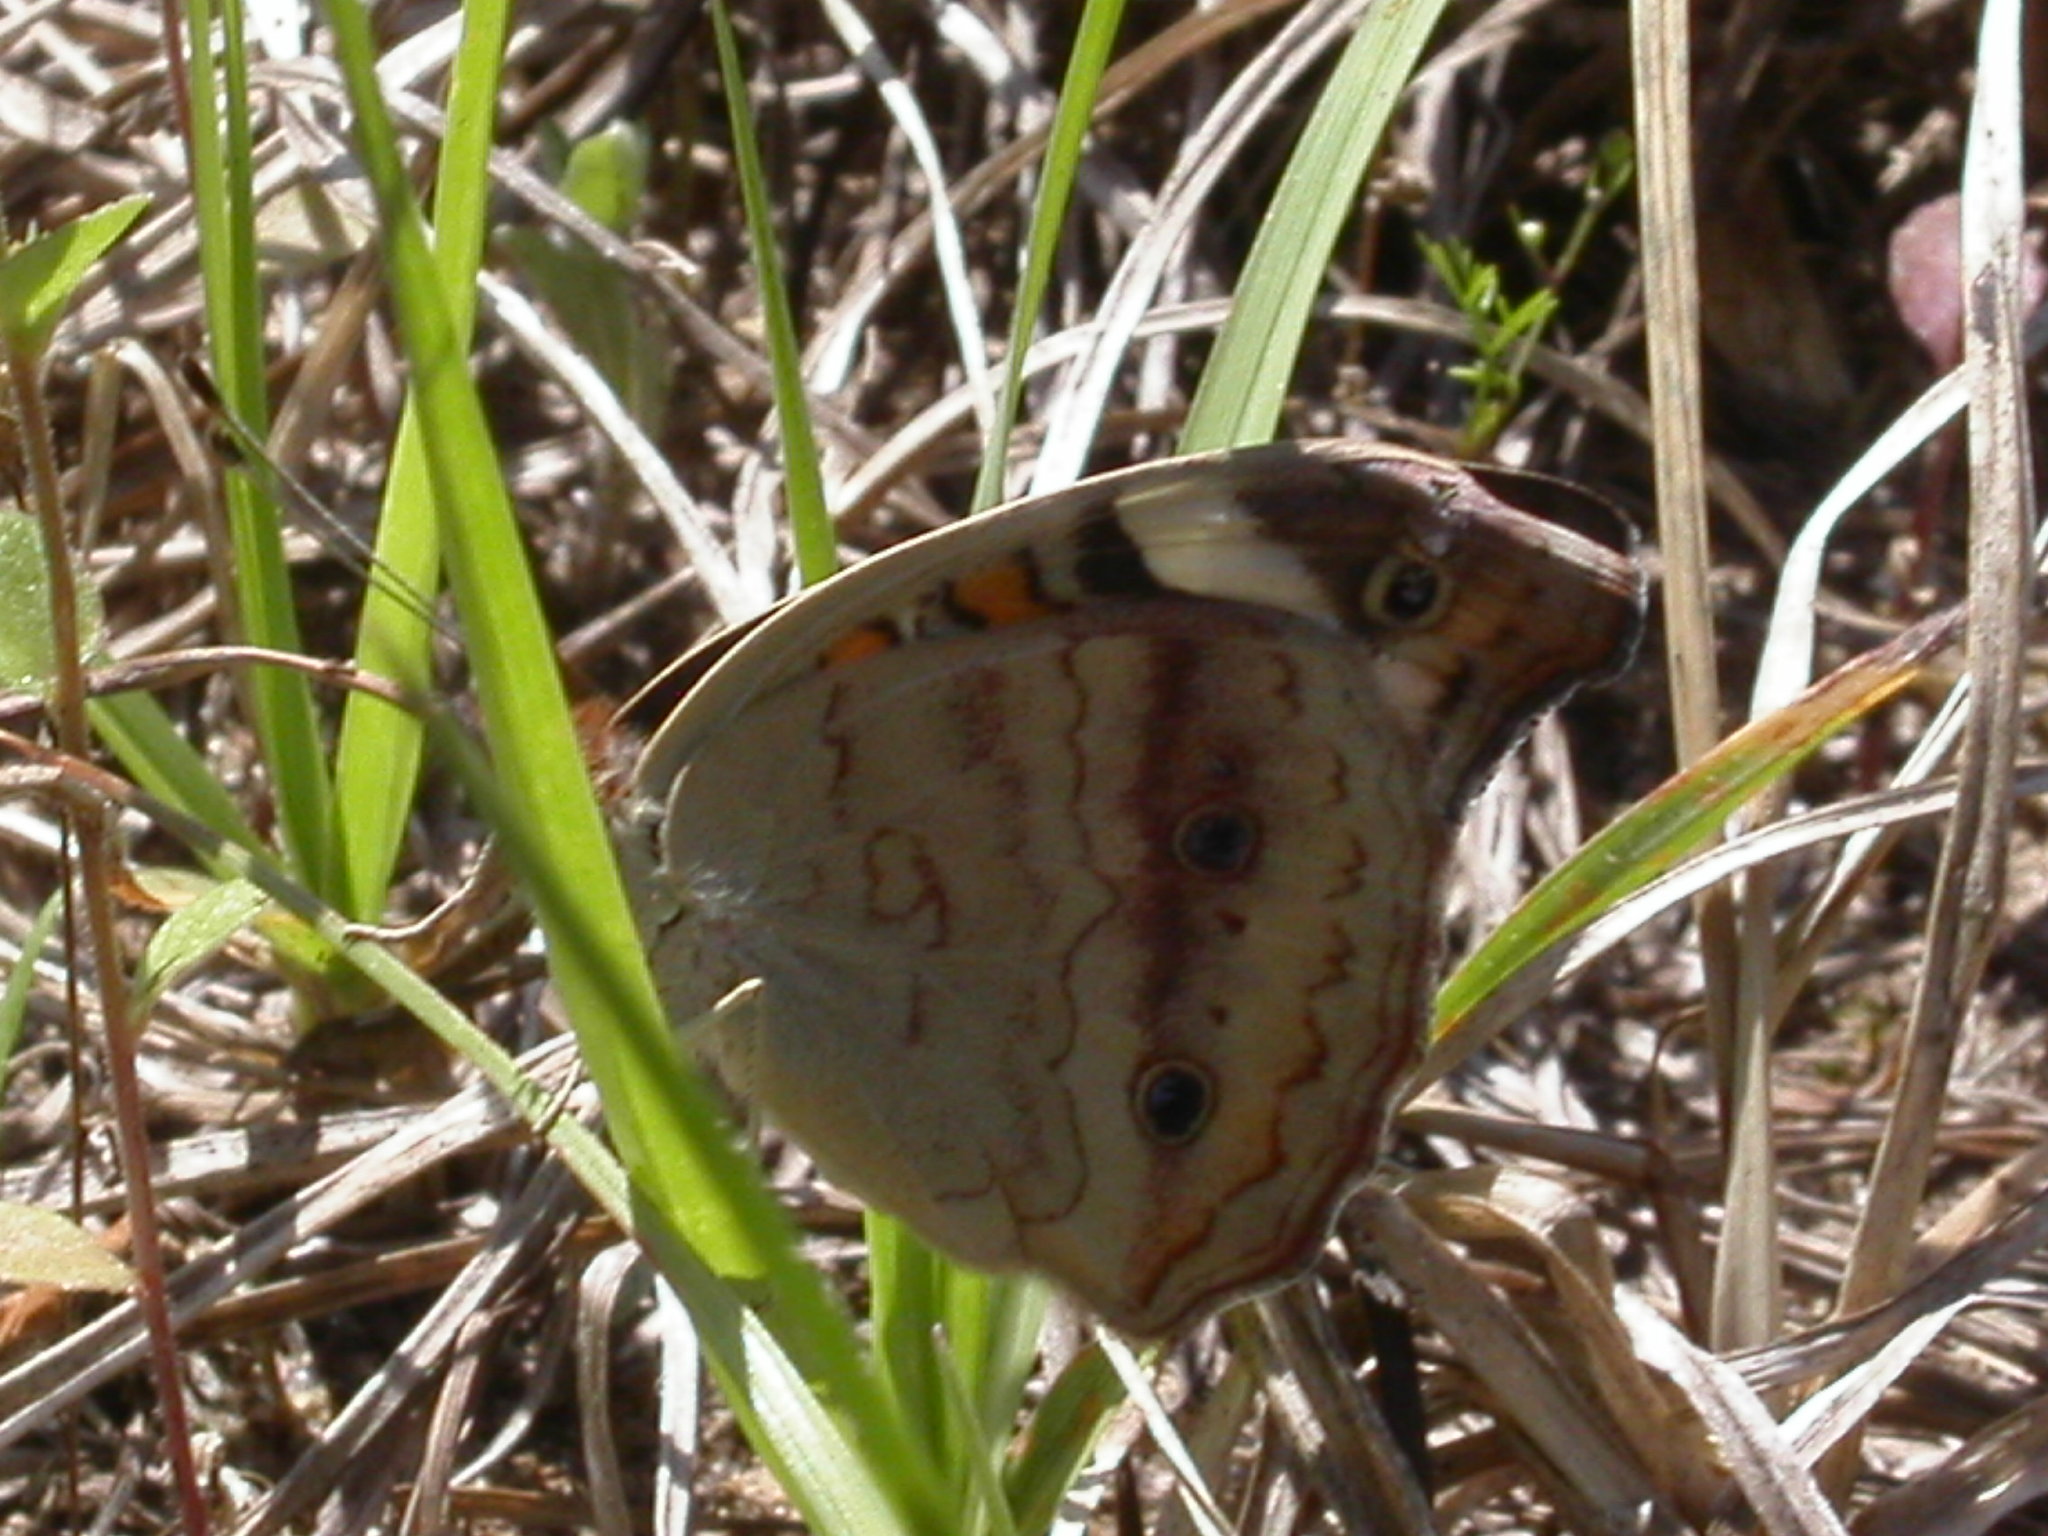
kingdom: Animalia
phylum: Arthropoda
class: Insecta
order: Lepidoptera
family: Nymphalidae
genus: Junonia
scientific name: Junonia coenia
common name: Common buckeye
